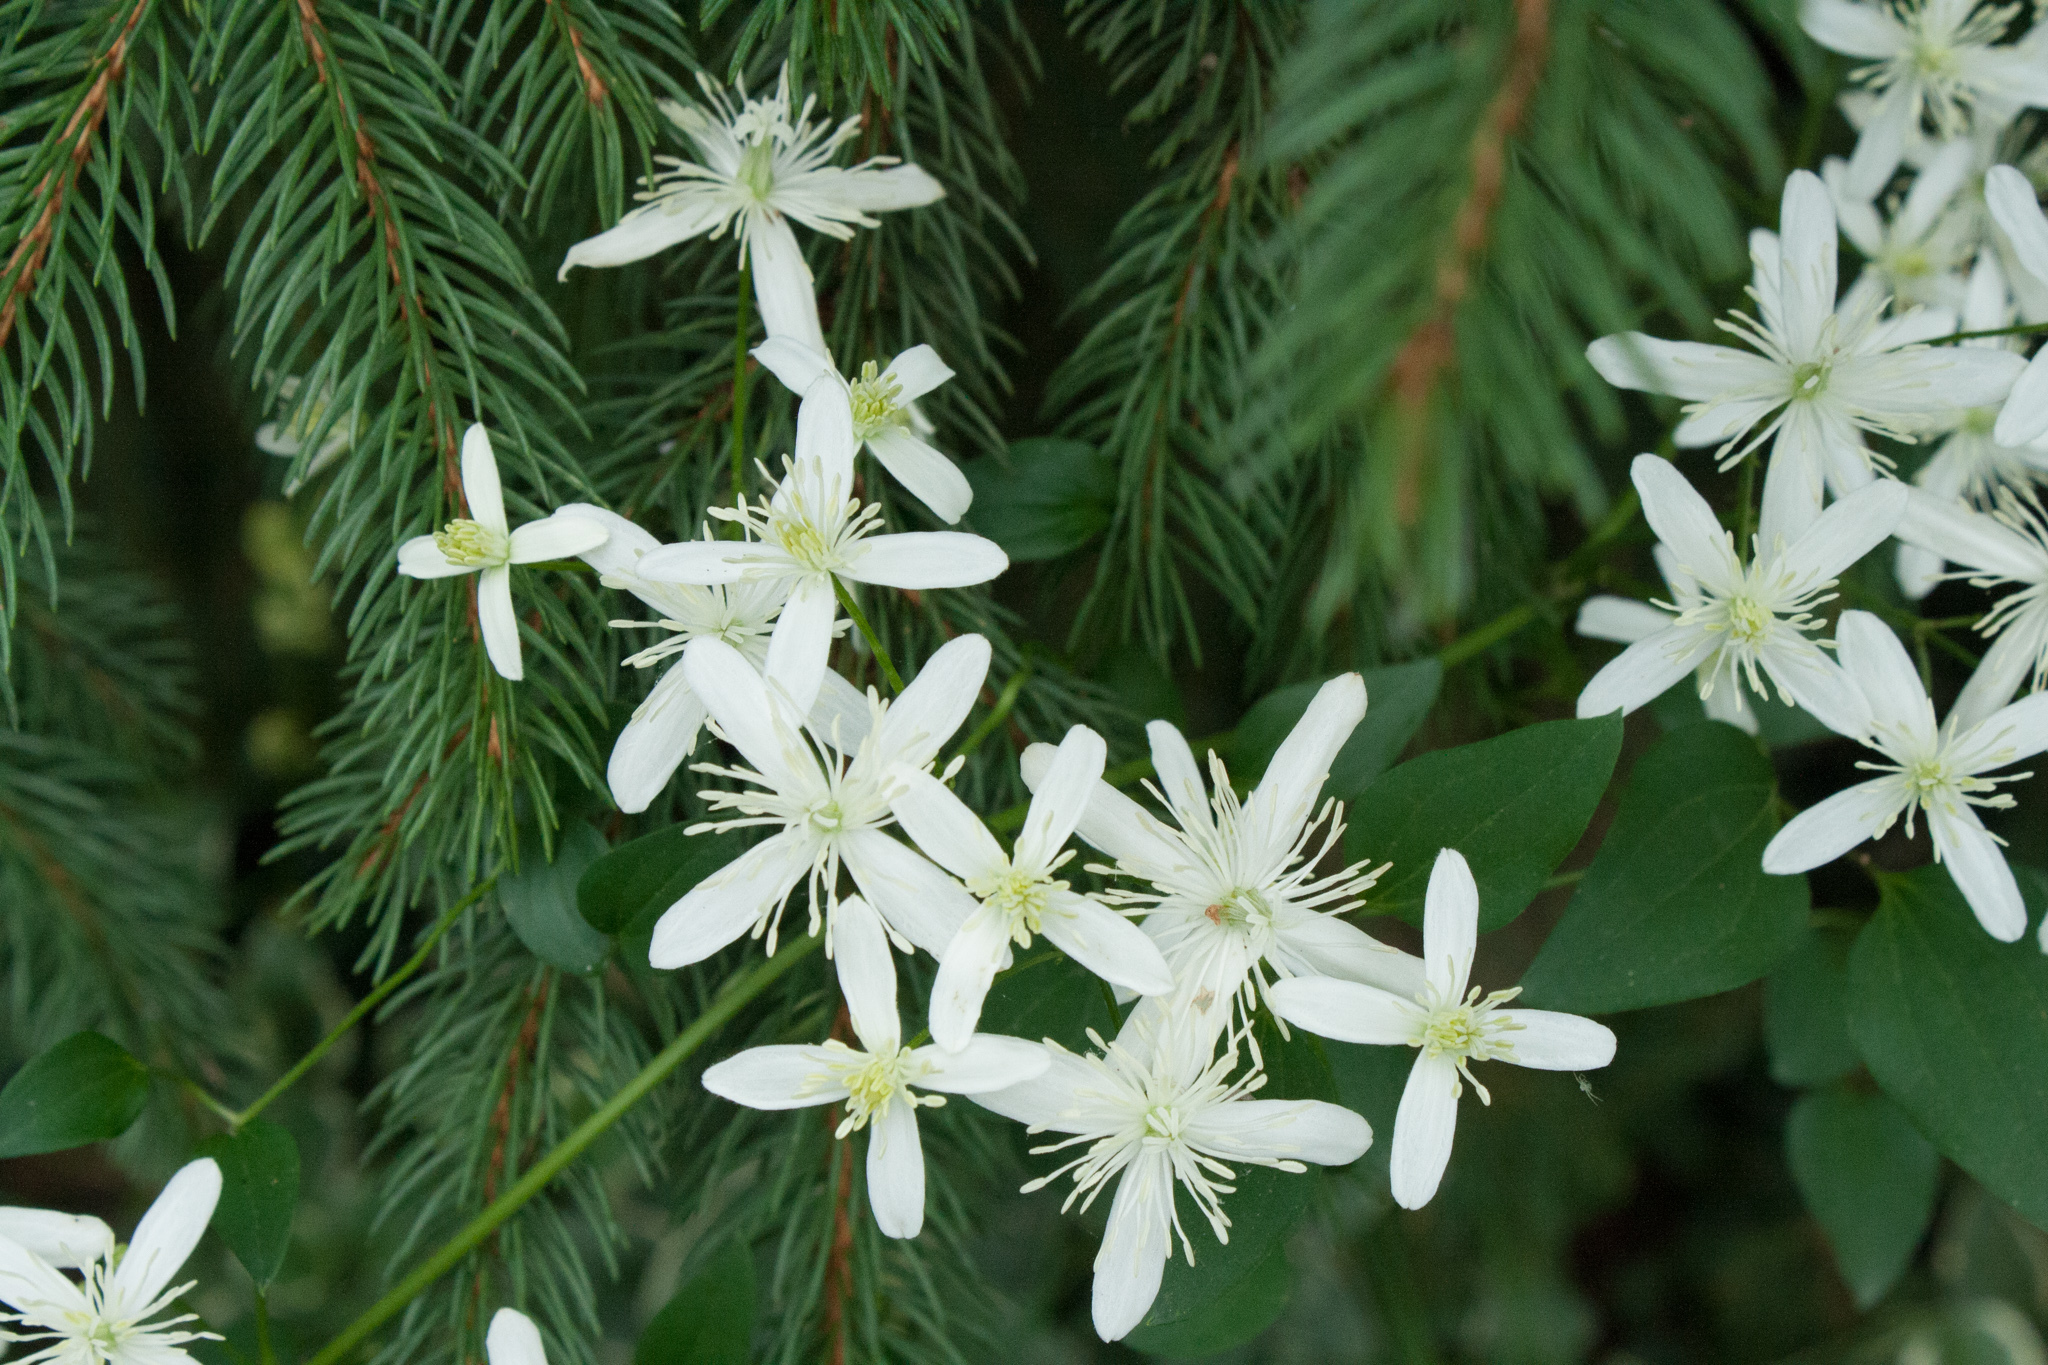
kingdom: Plantae
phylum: Tracheophyta
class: Magnoliopsida
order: Ranunculales
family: Ranunculaceae
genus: Clematis
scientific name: Clematis terniflora
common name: Sweet autumn clematis
